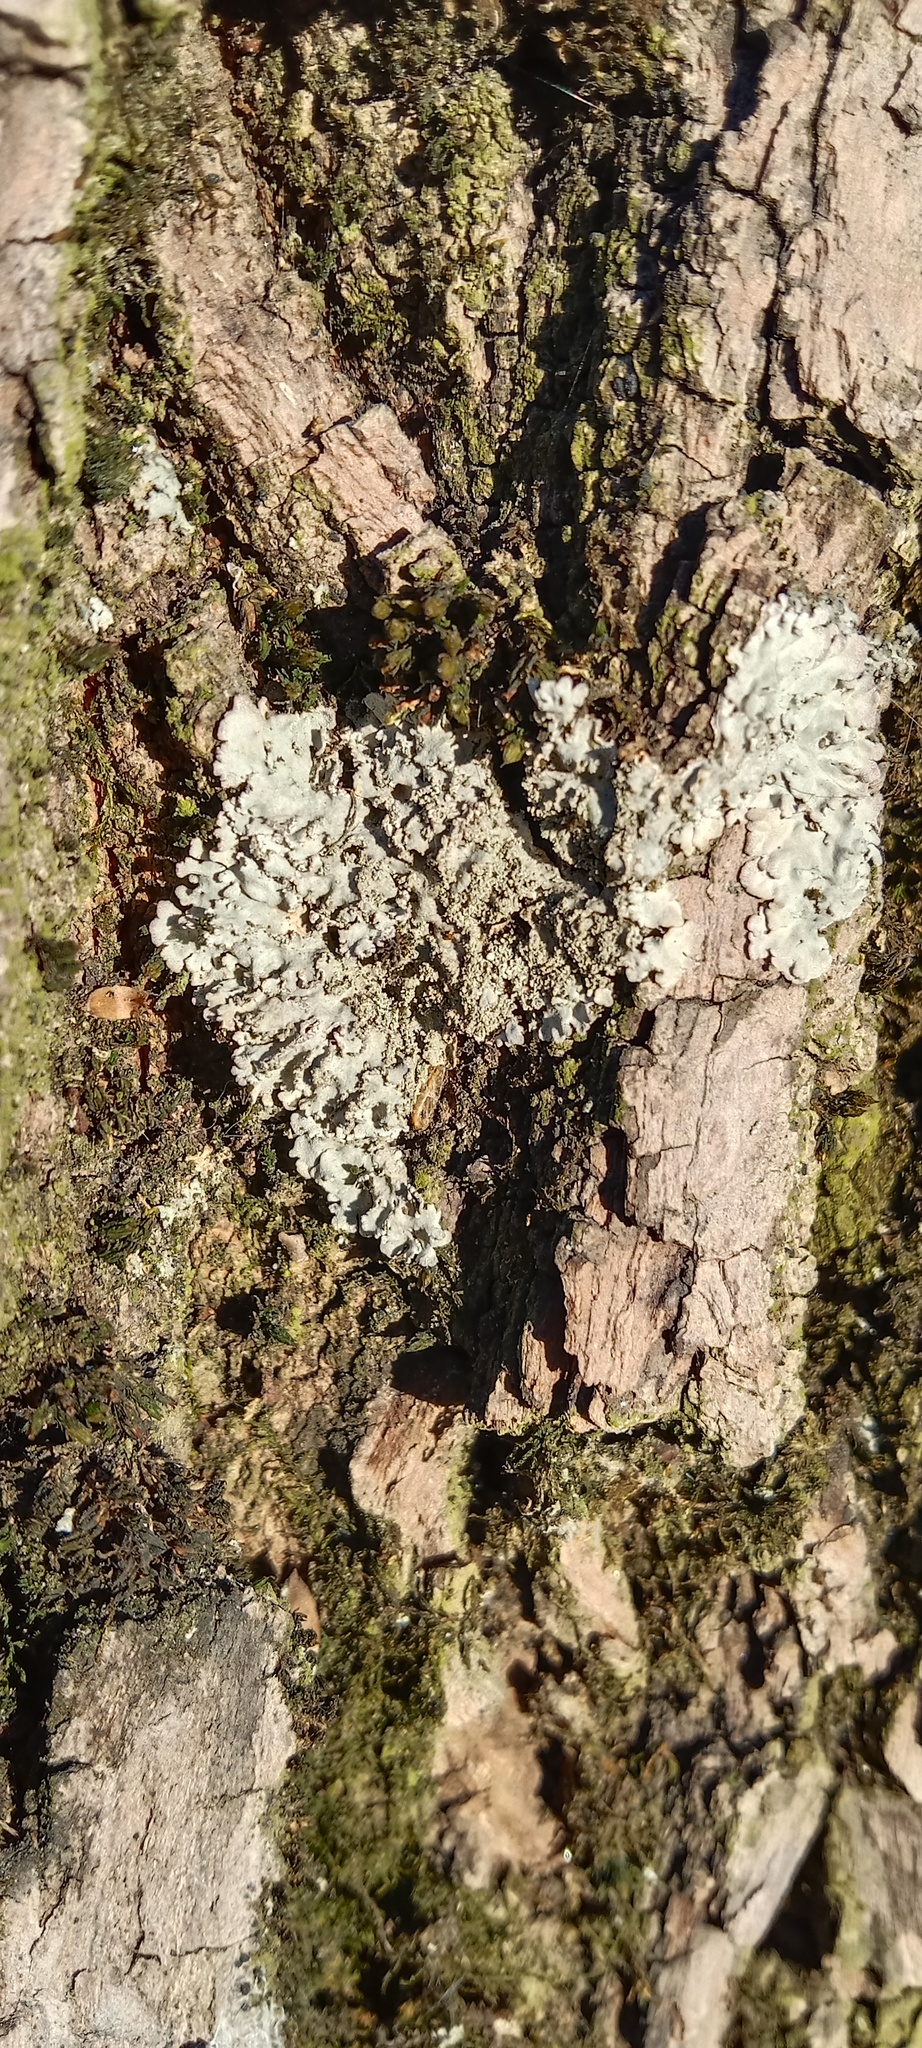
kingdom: Fungi
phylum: Ascomycota
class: Lecanoromycetes
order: Caliciales
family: Physciaceae
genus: Physconia
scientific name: Physconia enteroxantha
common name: Yellow-edged frost lichen
